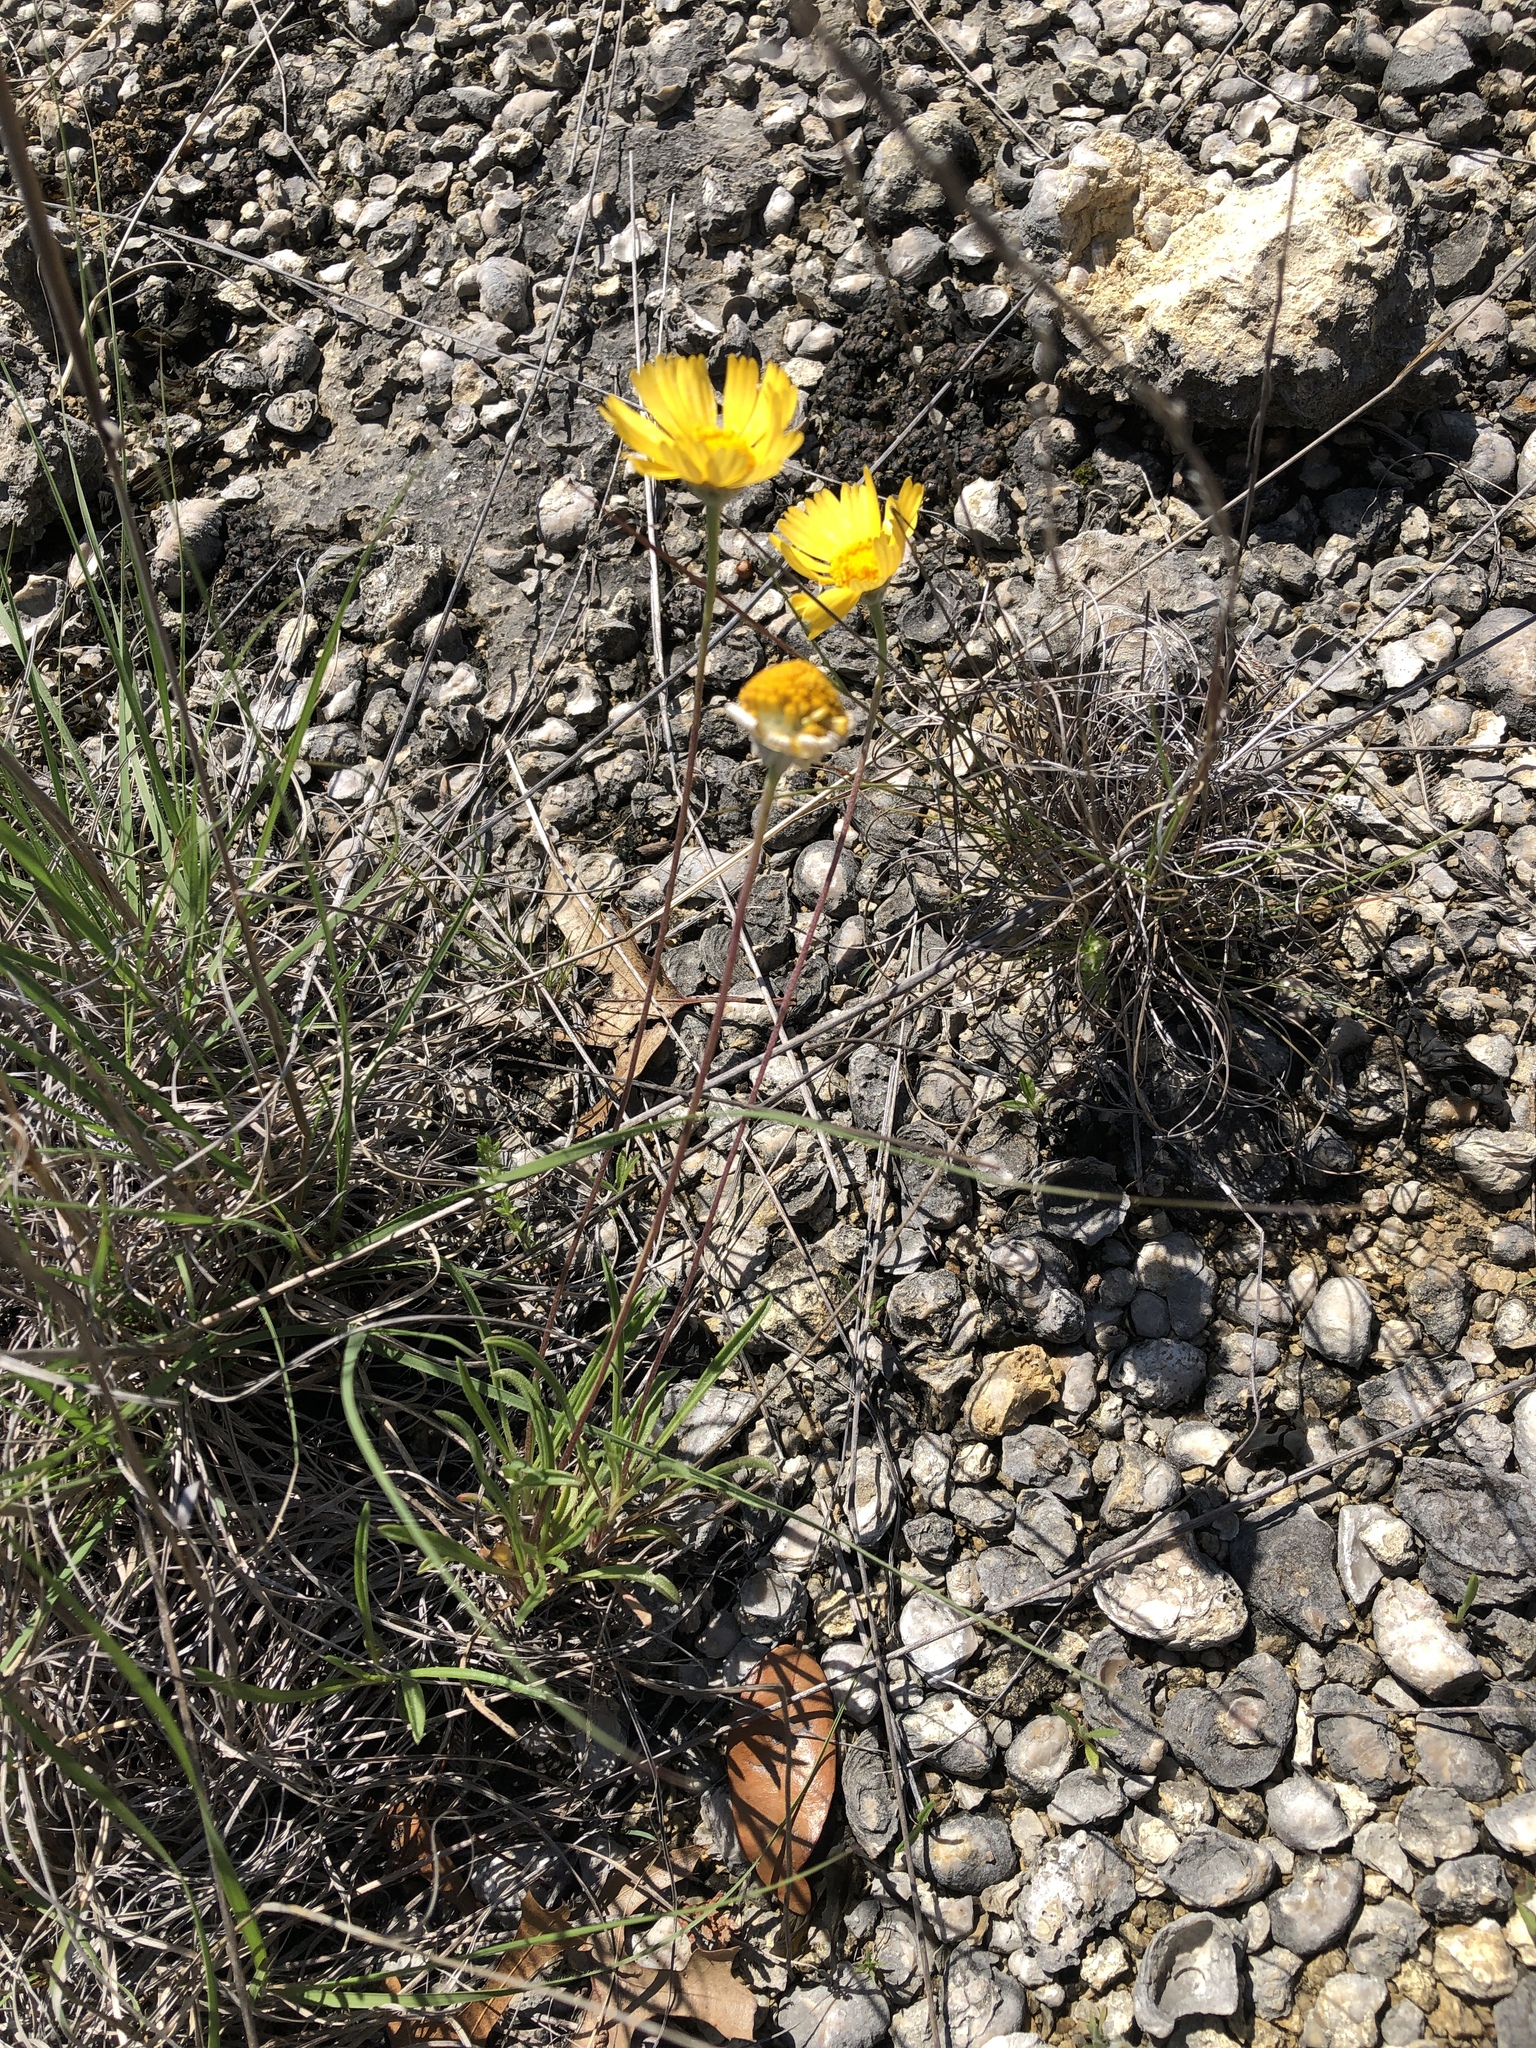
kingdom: Plantae
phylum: Tracheophyta
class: Magnoliopsida
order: Asterales
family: Asteraceae
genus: Tetraneuris
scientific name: Tetraneuris scaposa
